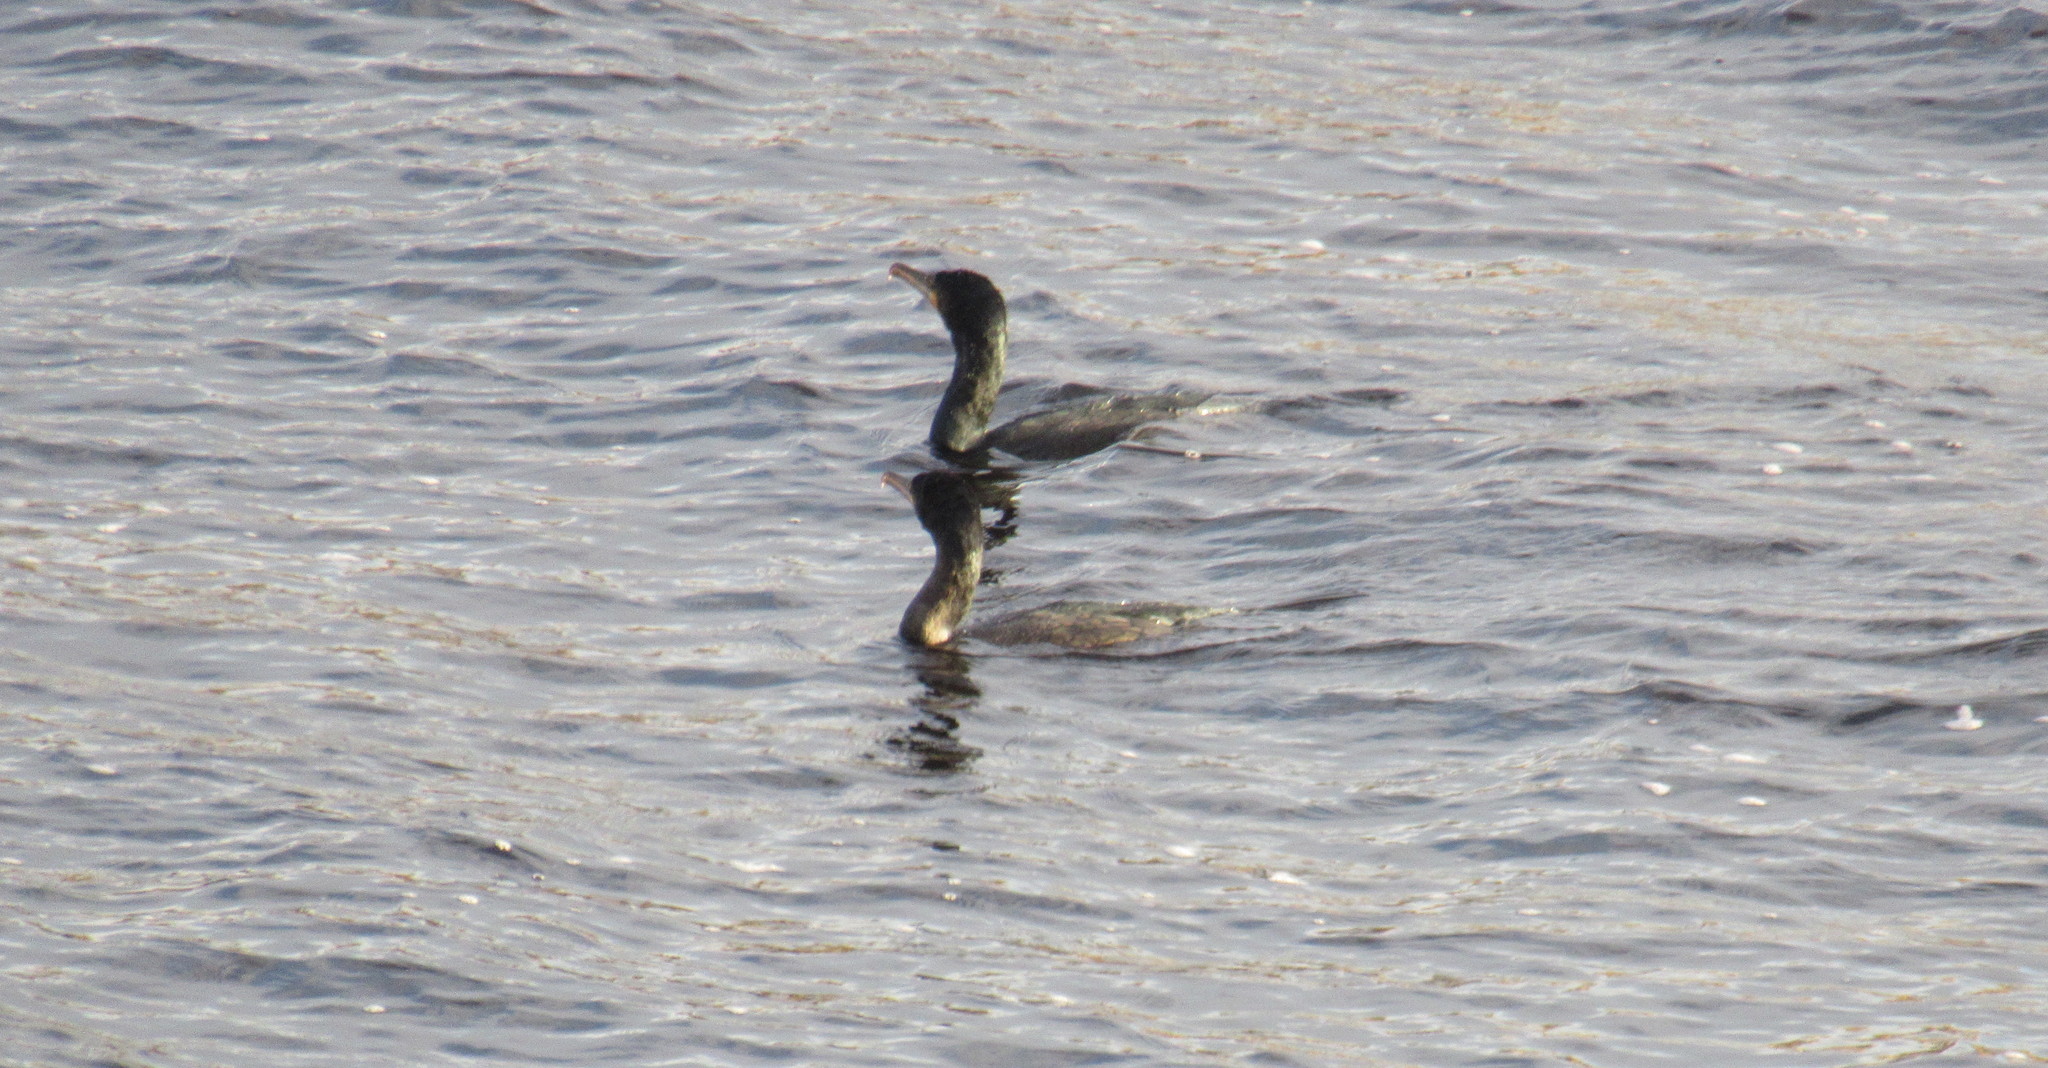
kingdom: Animalia
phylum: Chordata
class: Aves
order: Suliformes
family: Phalacrocoracidae
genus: Phalacrocorax
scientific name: Phalacrocorax carbo
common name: Great cormorant
